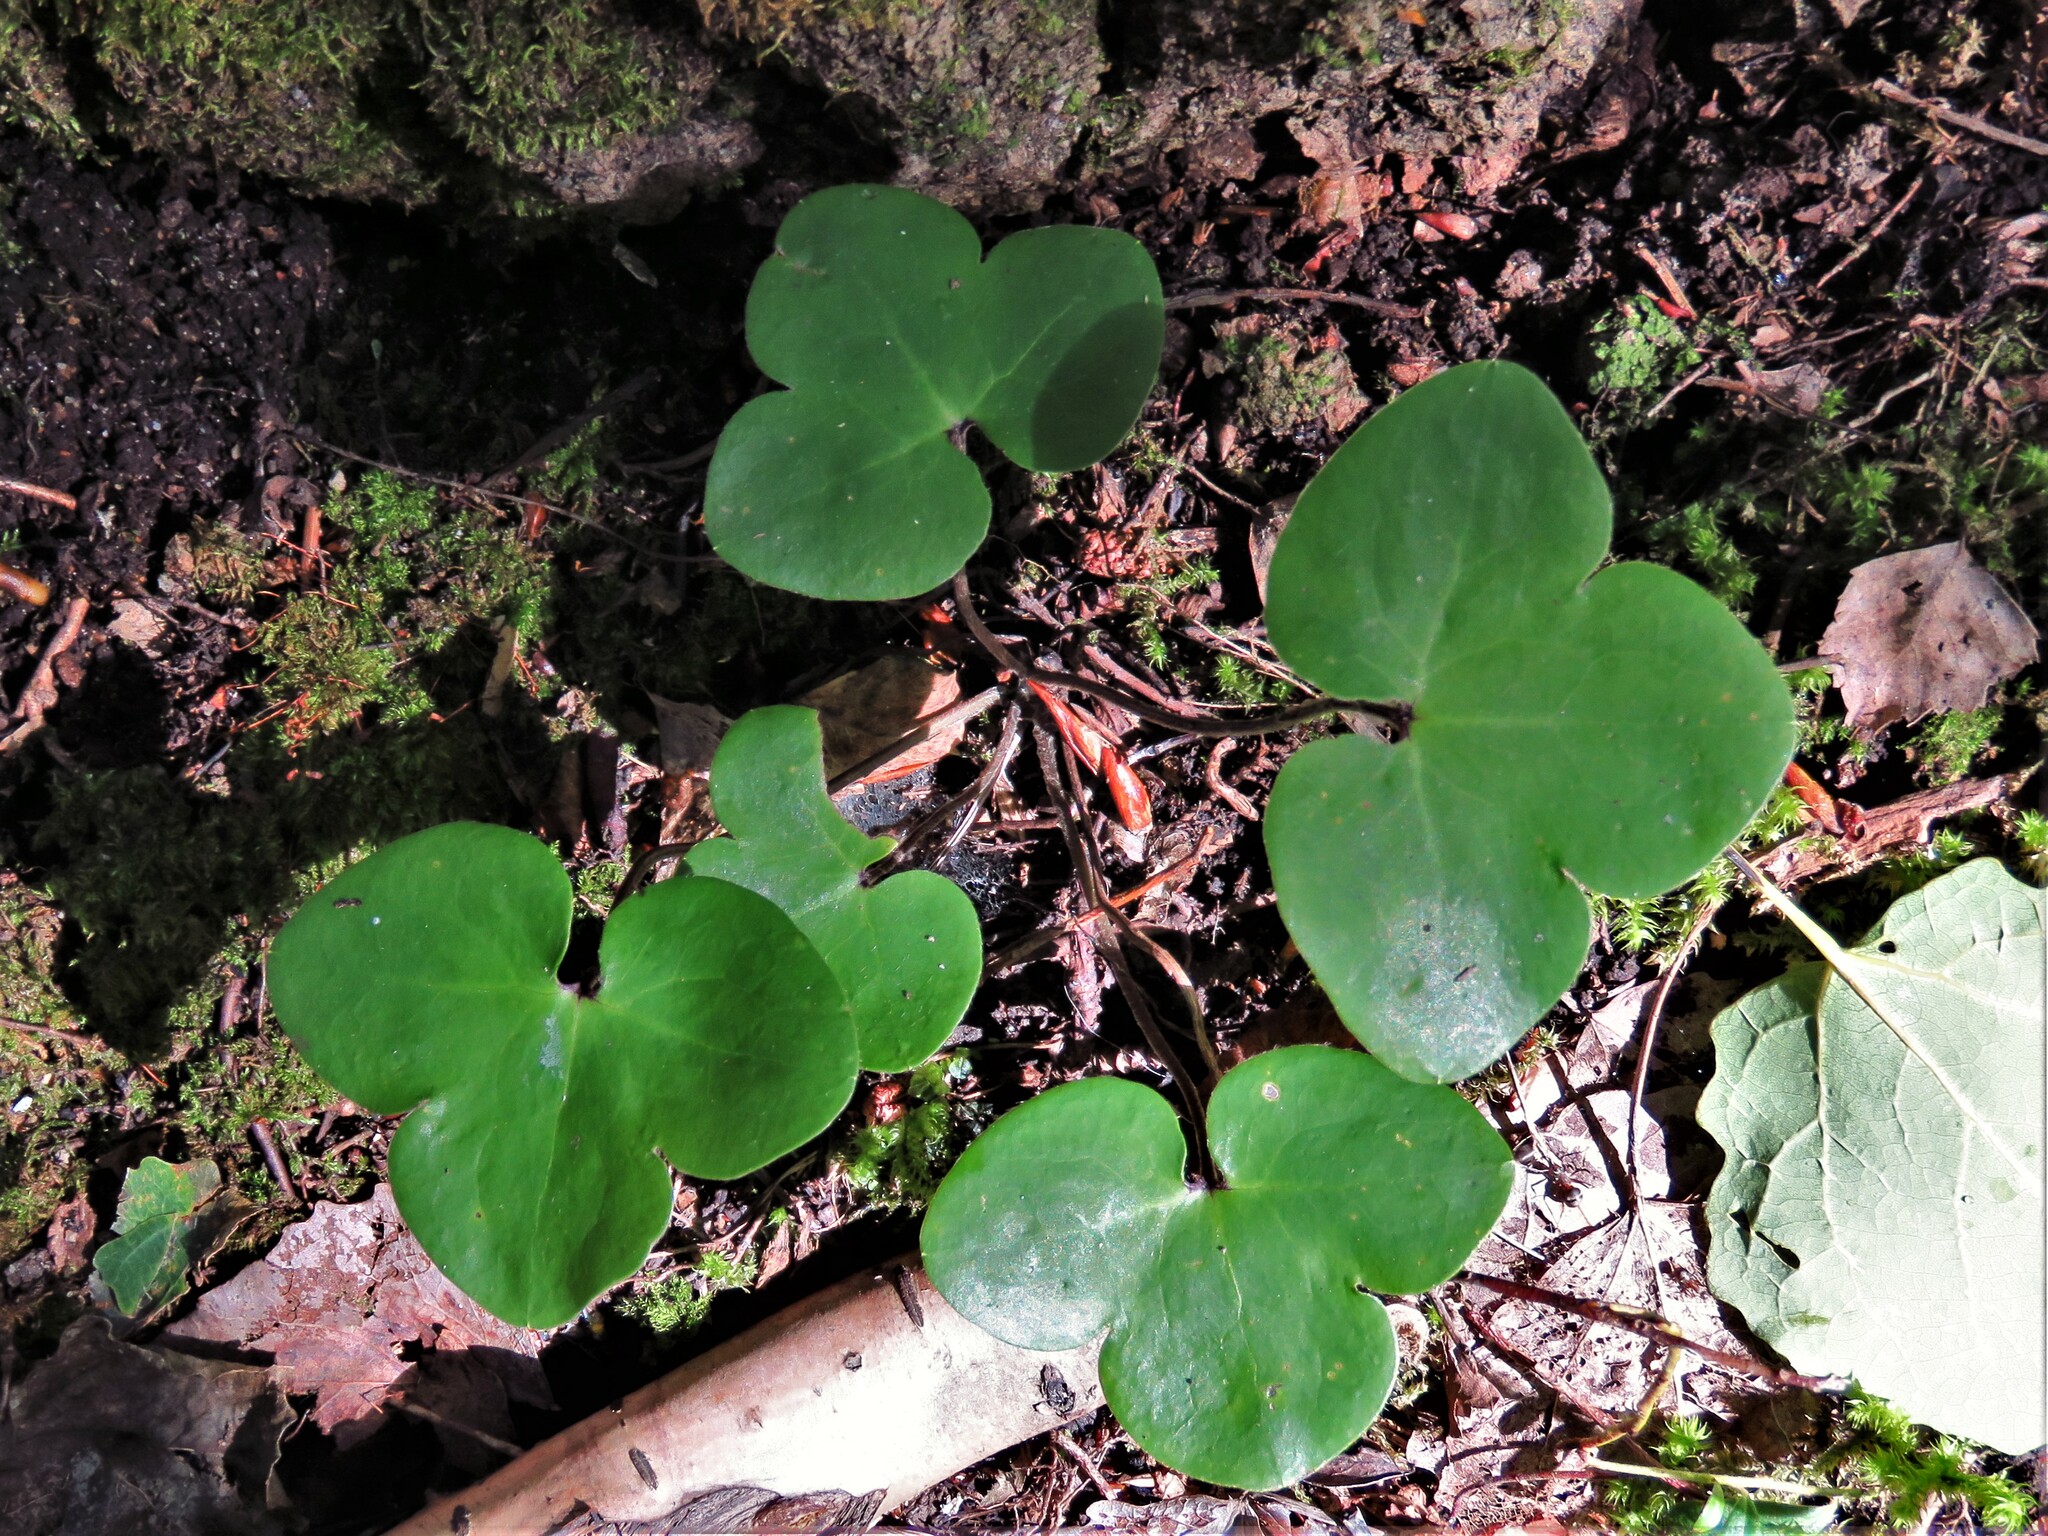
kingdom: Plantae
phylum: Tracheophyta
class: Magnoliopsida
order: Ranunculales
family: Ranunculaceae
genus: Hepatica
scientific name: Hepatica nobilis
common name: Liverleaf
